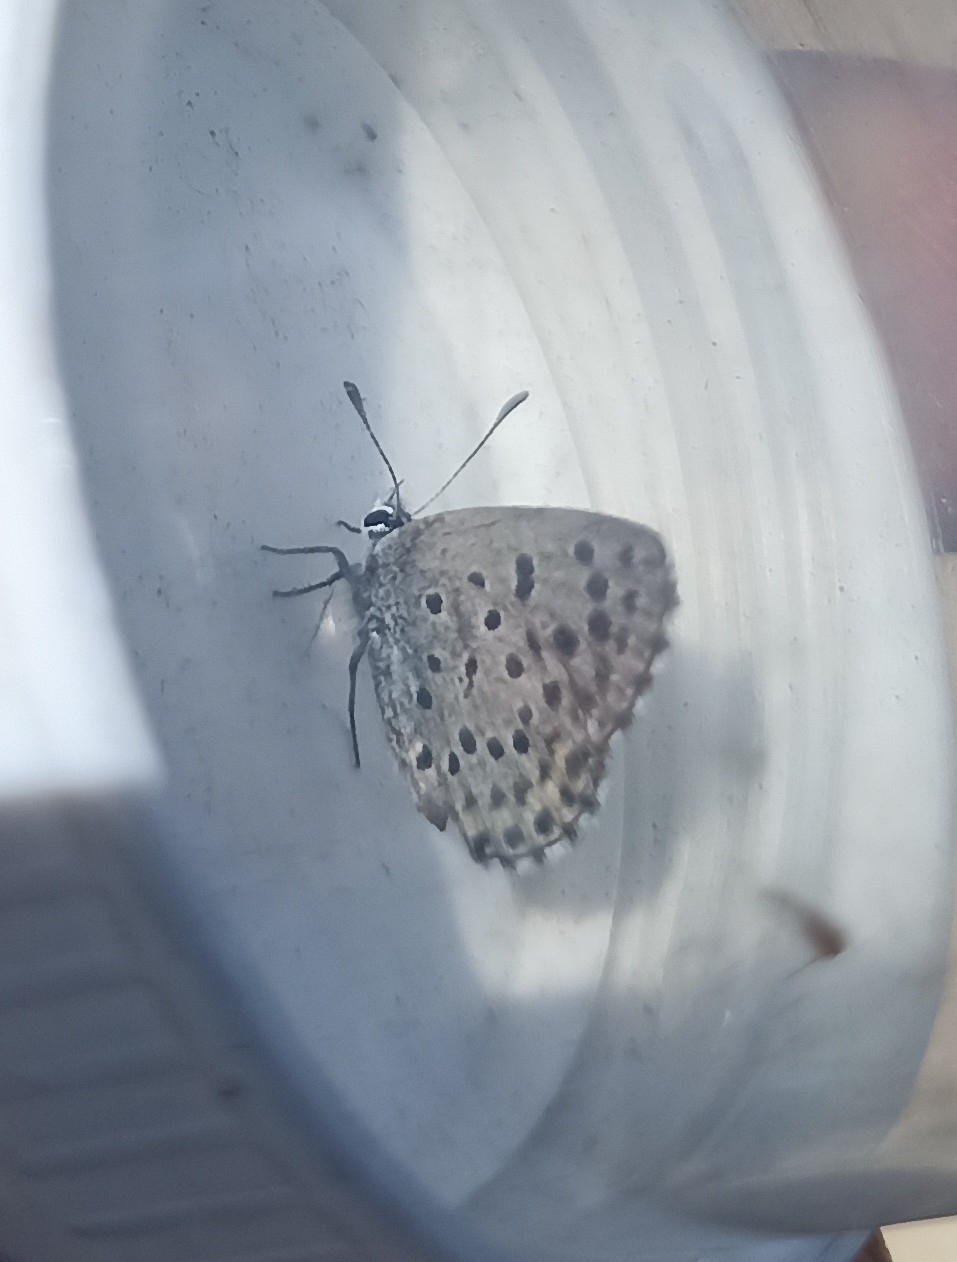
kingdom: Animalia
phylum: Arthropoda
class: Insecta
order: Lepidoptera
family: Lycaenidae
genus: Pseudophilotes
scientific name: Pseudophilotes baton
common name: Baton blue
